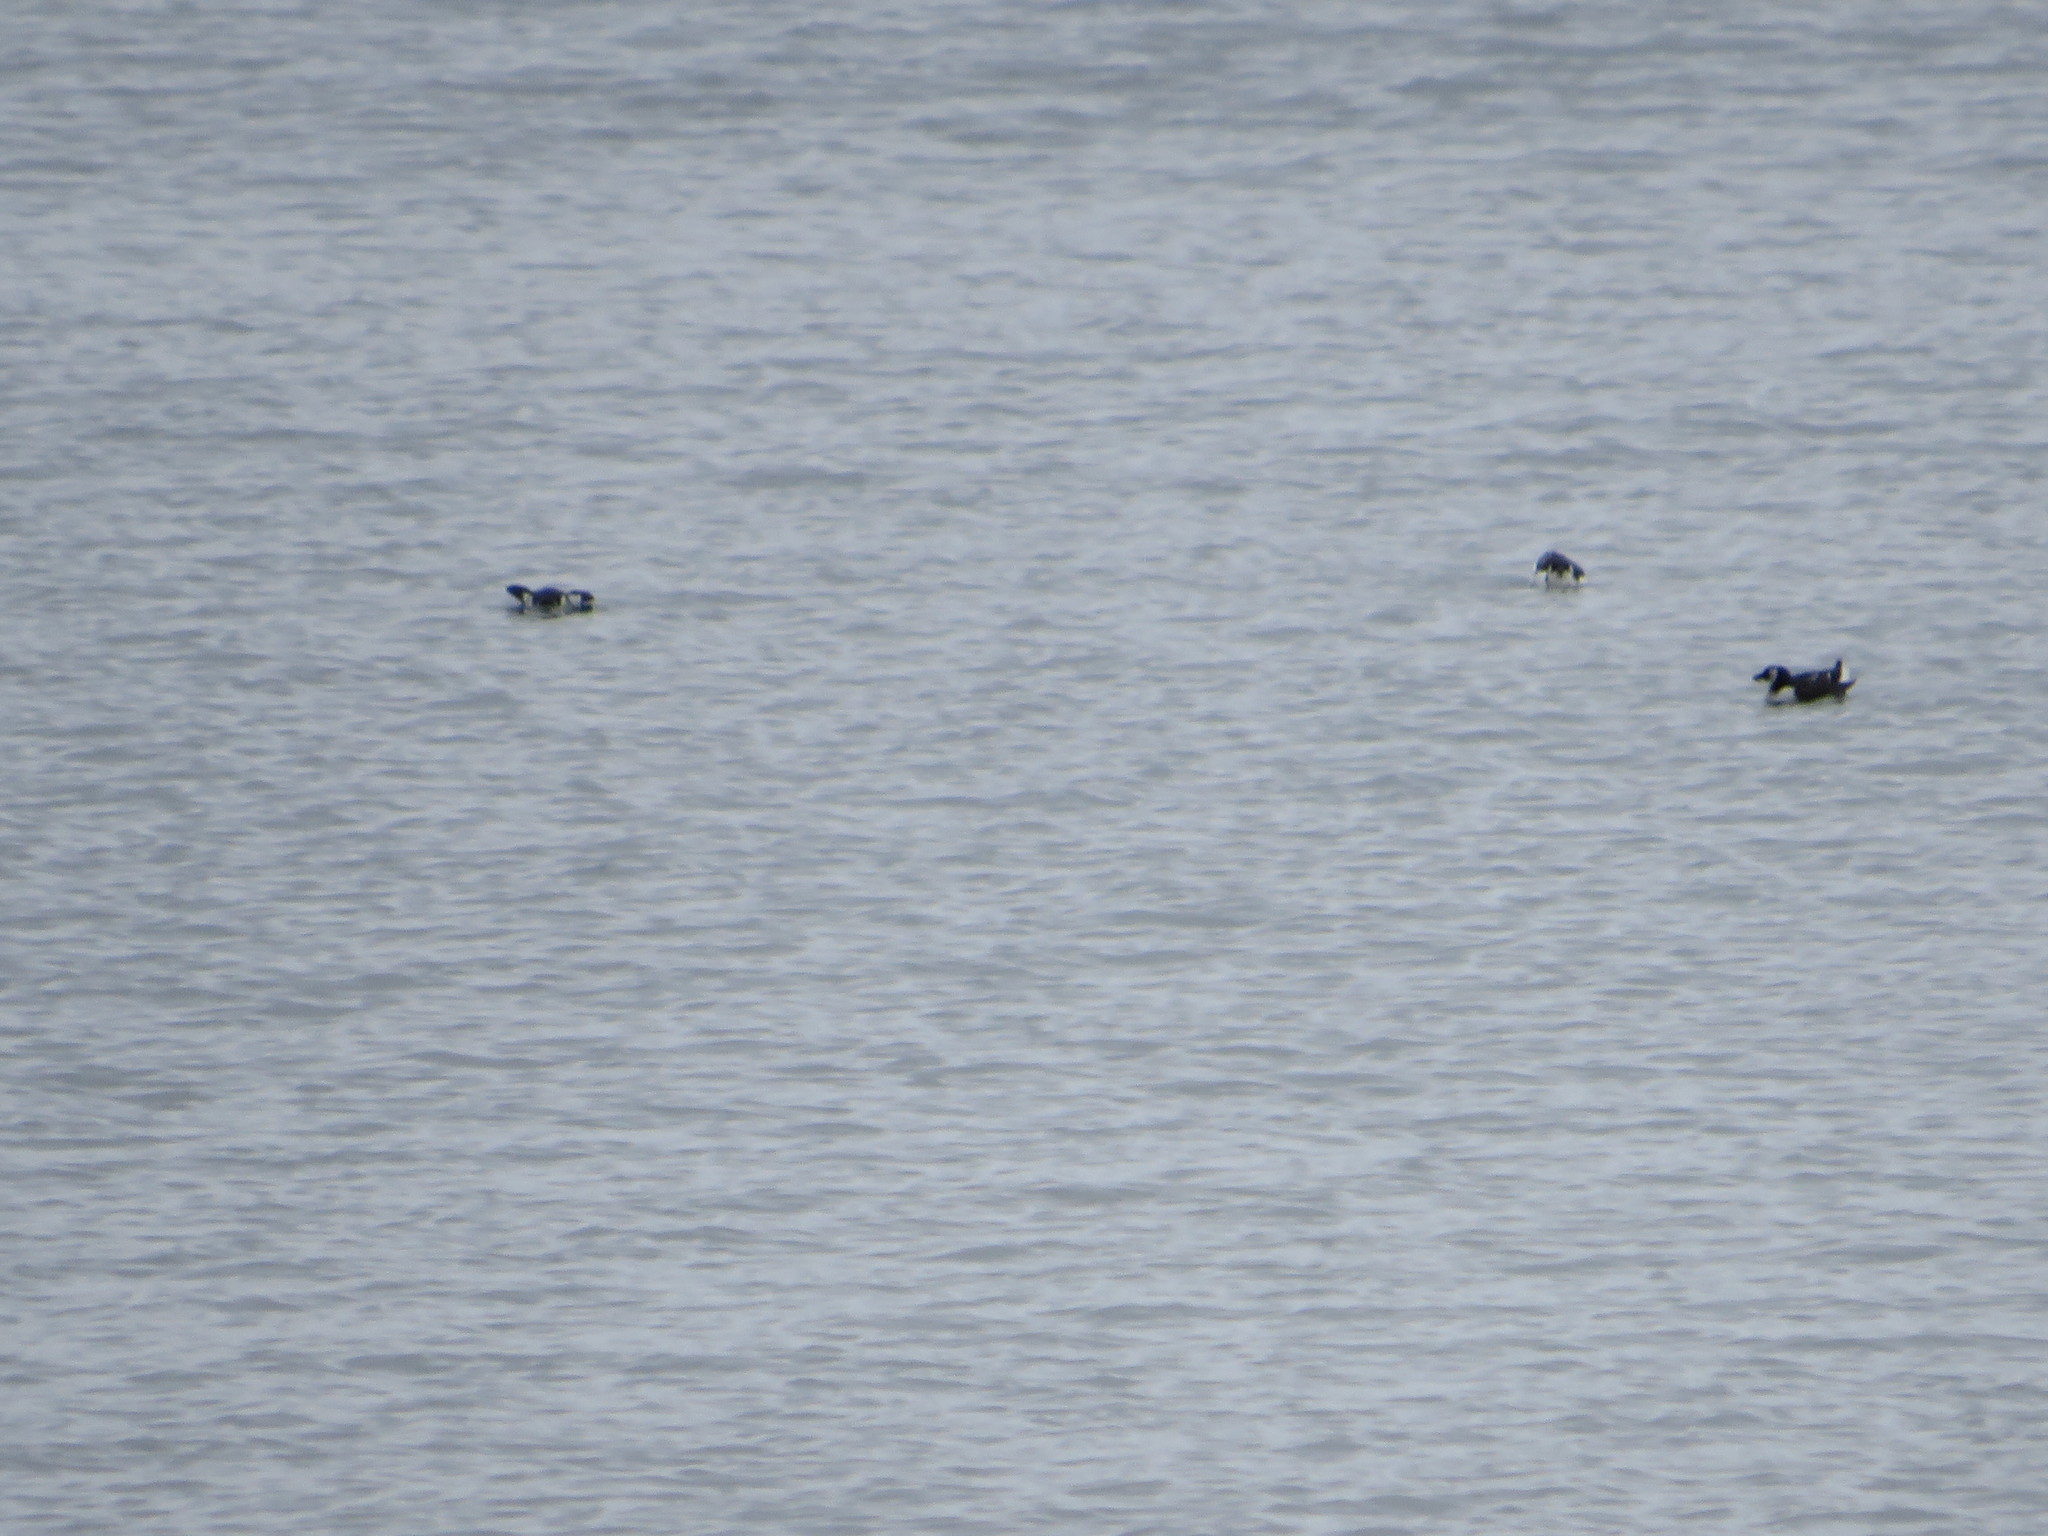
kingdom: Animalia
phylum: Chordata
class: Aves
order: Charadriiformes
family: Alcidae
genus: Alle
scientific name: Alle alle
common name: Little auk
